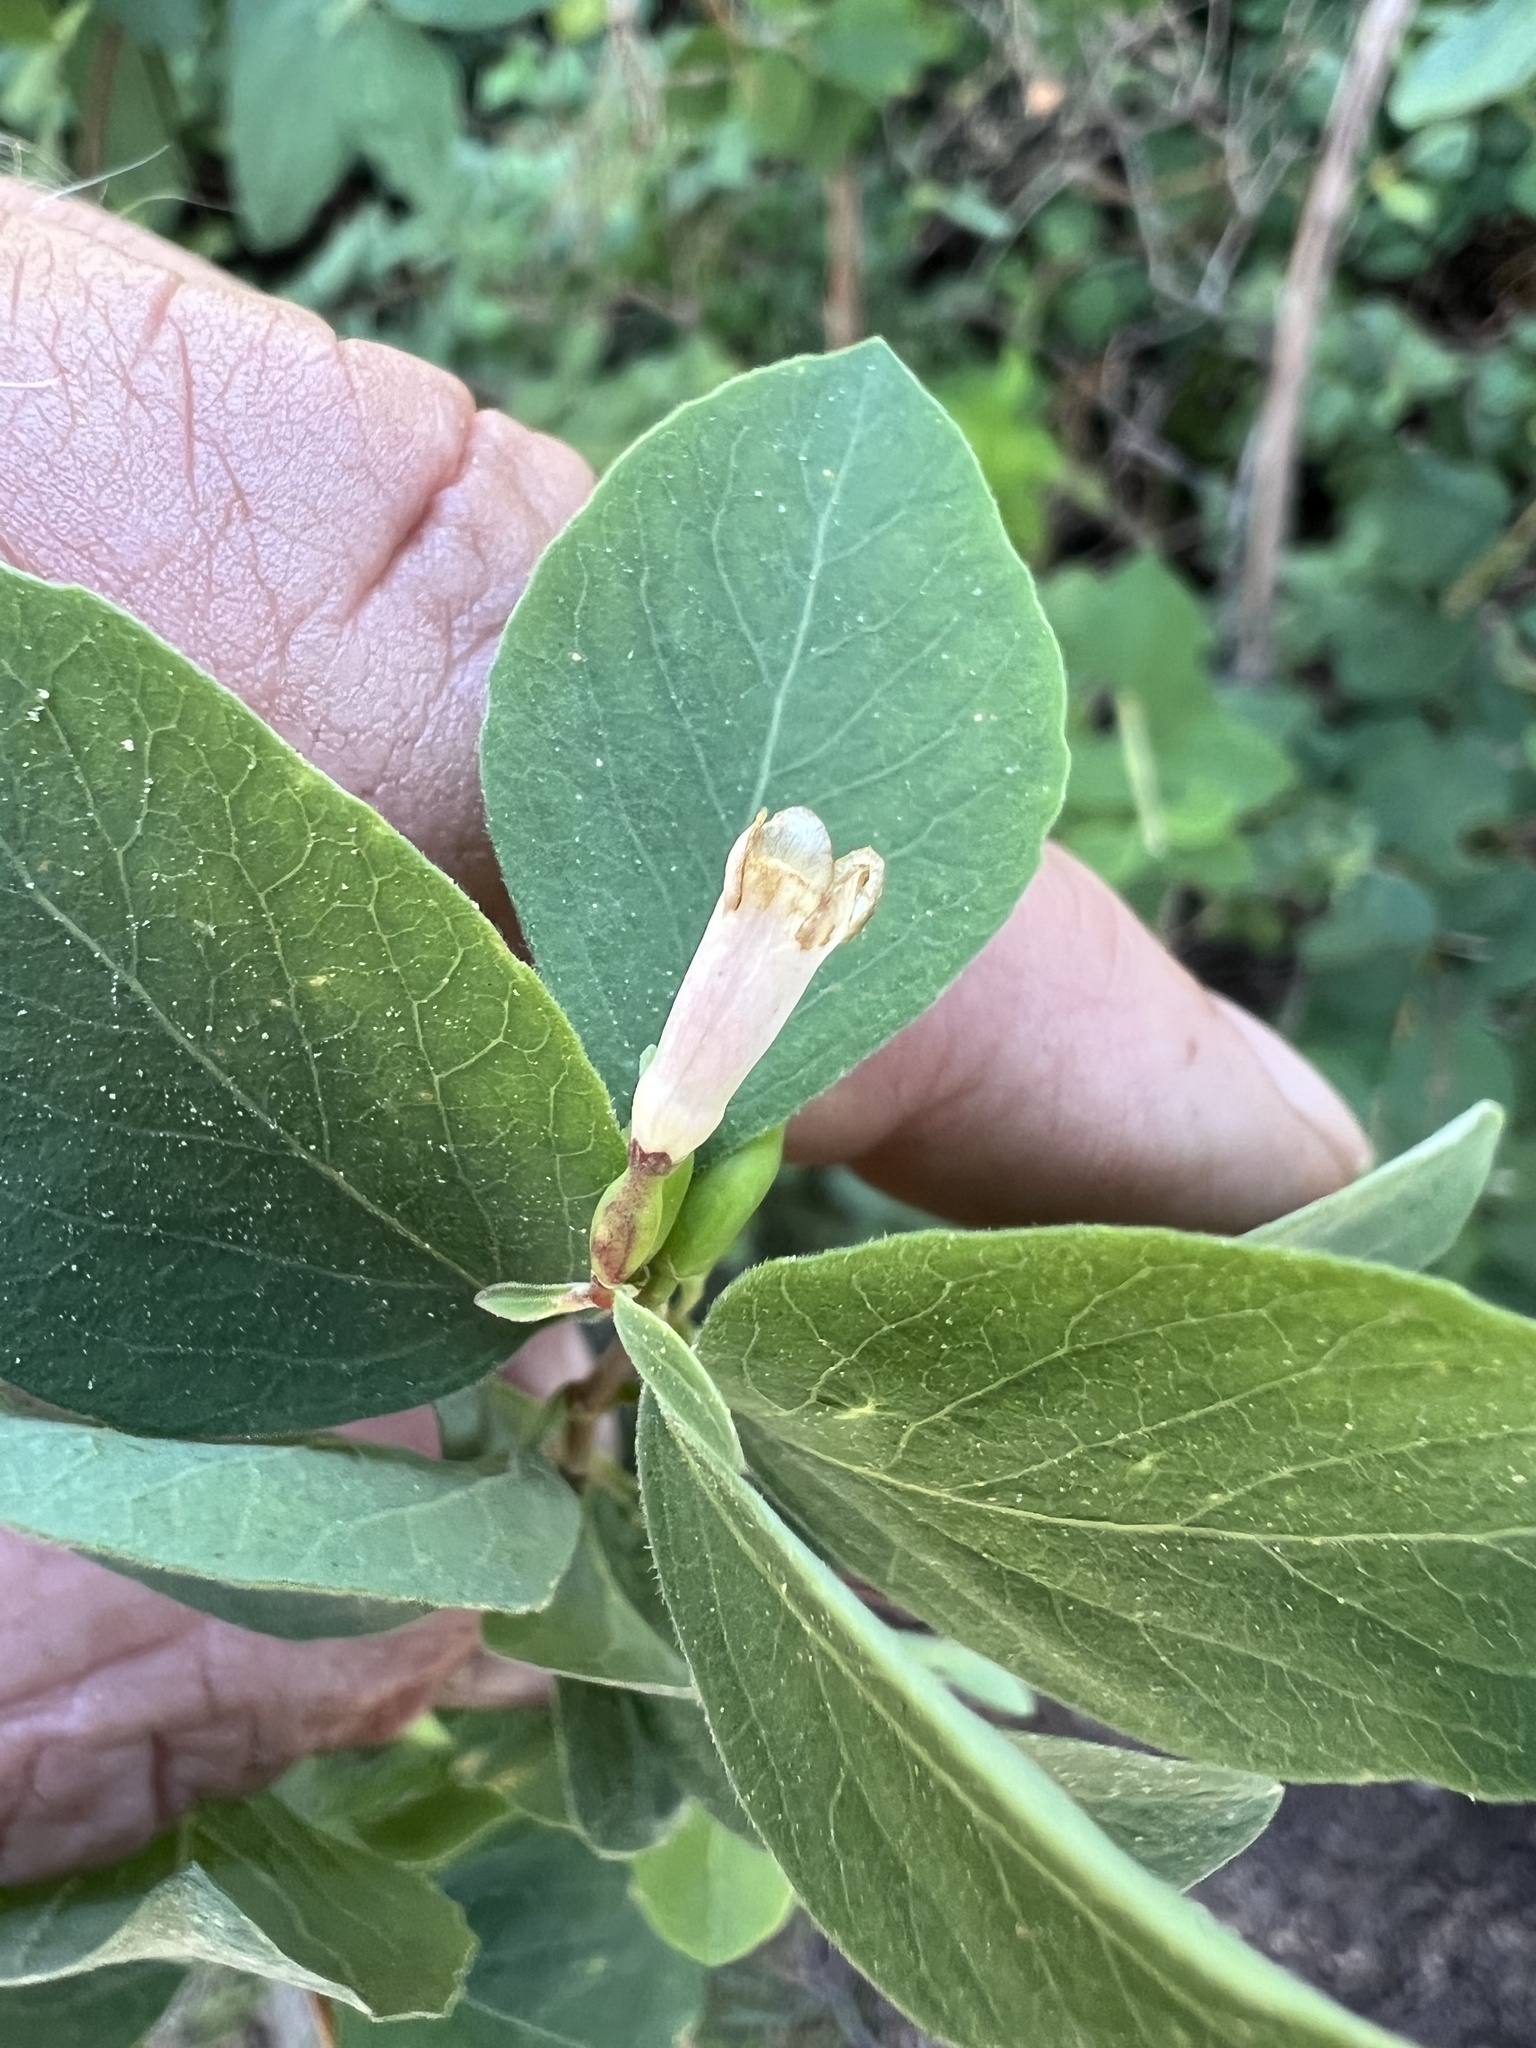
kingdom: Plantae
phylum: Tracheophyta
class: Magnoliopsida
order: Dipsacales
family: Caprifoliaceae
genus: Symphoricarpos
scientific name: Symphoricarpos rotundifolius
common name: Round-leaved snowberry
